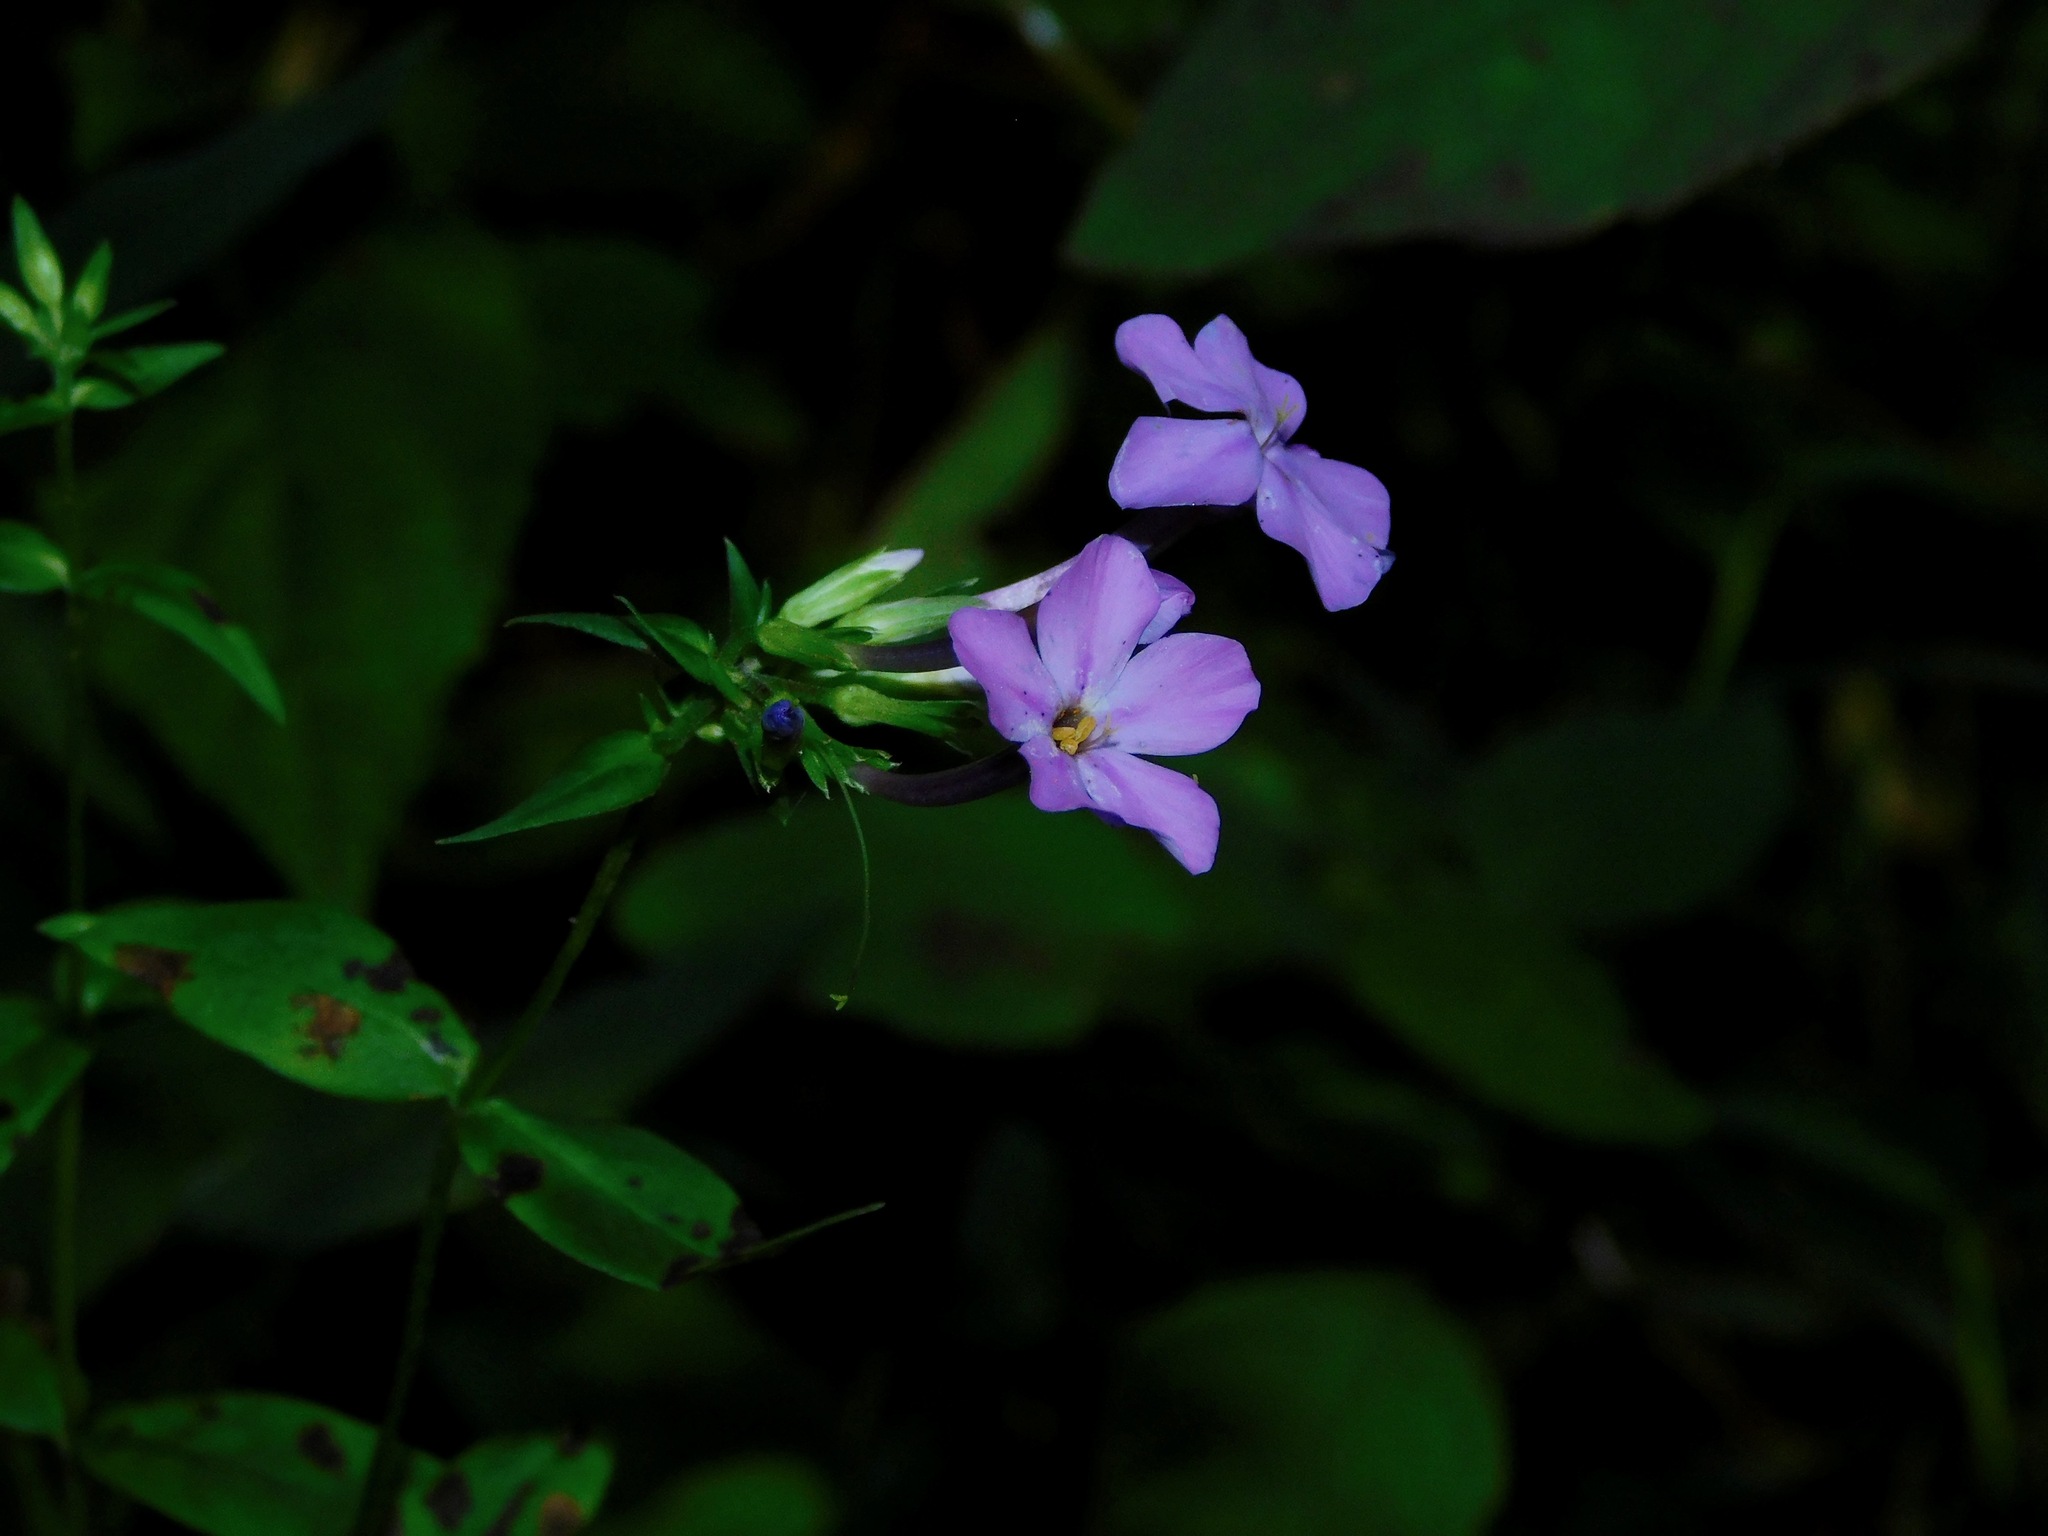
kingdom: Plantae
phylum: Tracheophyta
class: Magnoliopsida
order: Ericales
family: Polemoniaceae
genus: Phlox
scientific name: Phlox carolina
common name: Thick-leaf phlox
